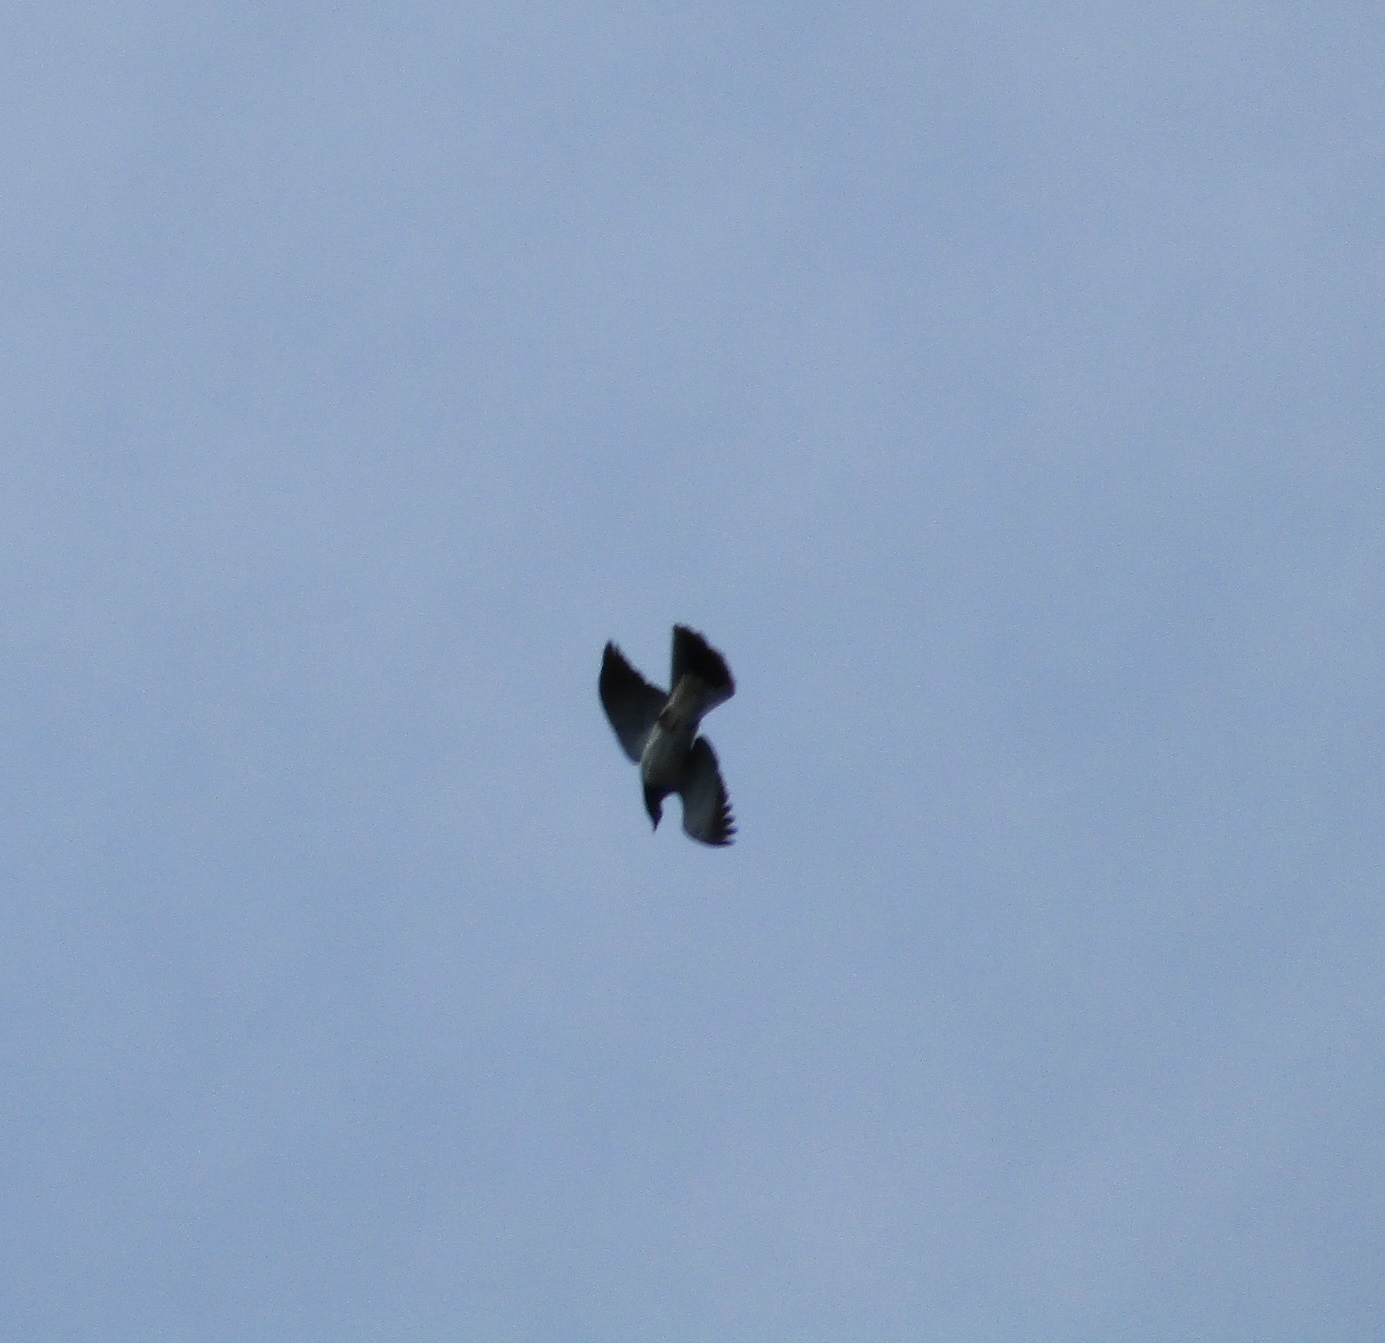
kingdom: Animalia
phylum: Chordata
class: Aves
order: Columbiformes
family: Columbidae
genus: Hemiphaga
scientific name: Hemiphaga novaeseelandiae
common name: New zealand pigeon
